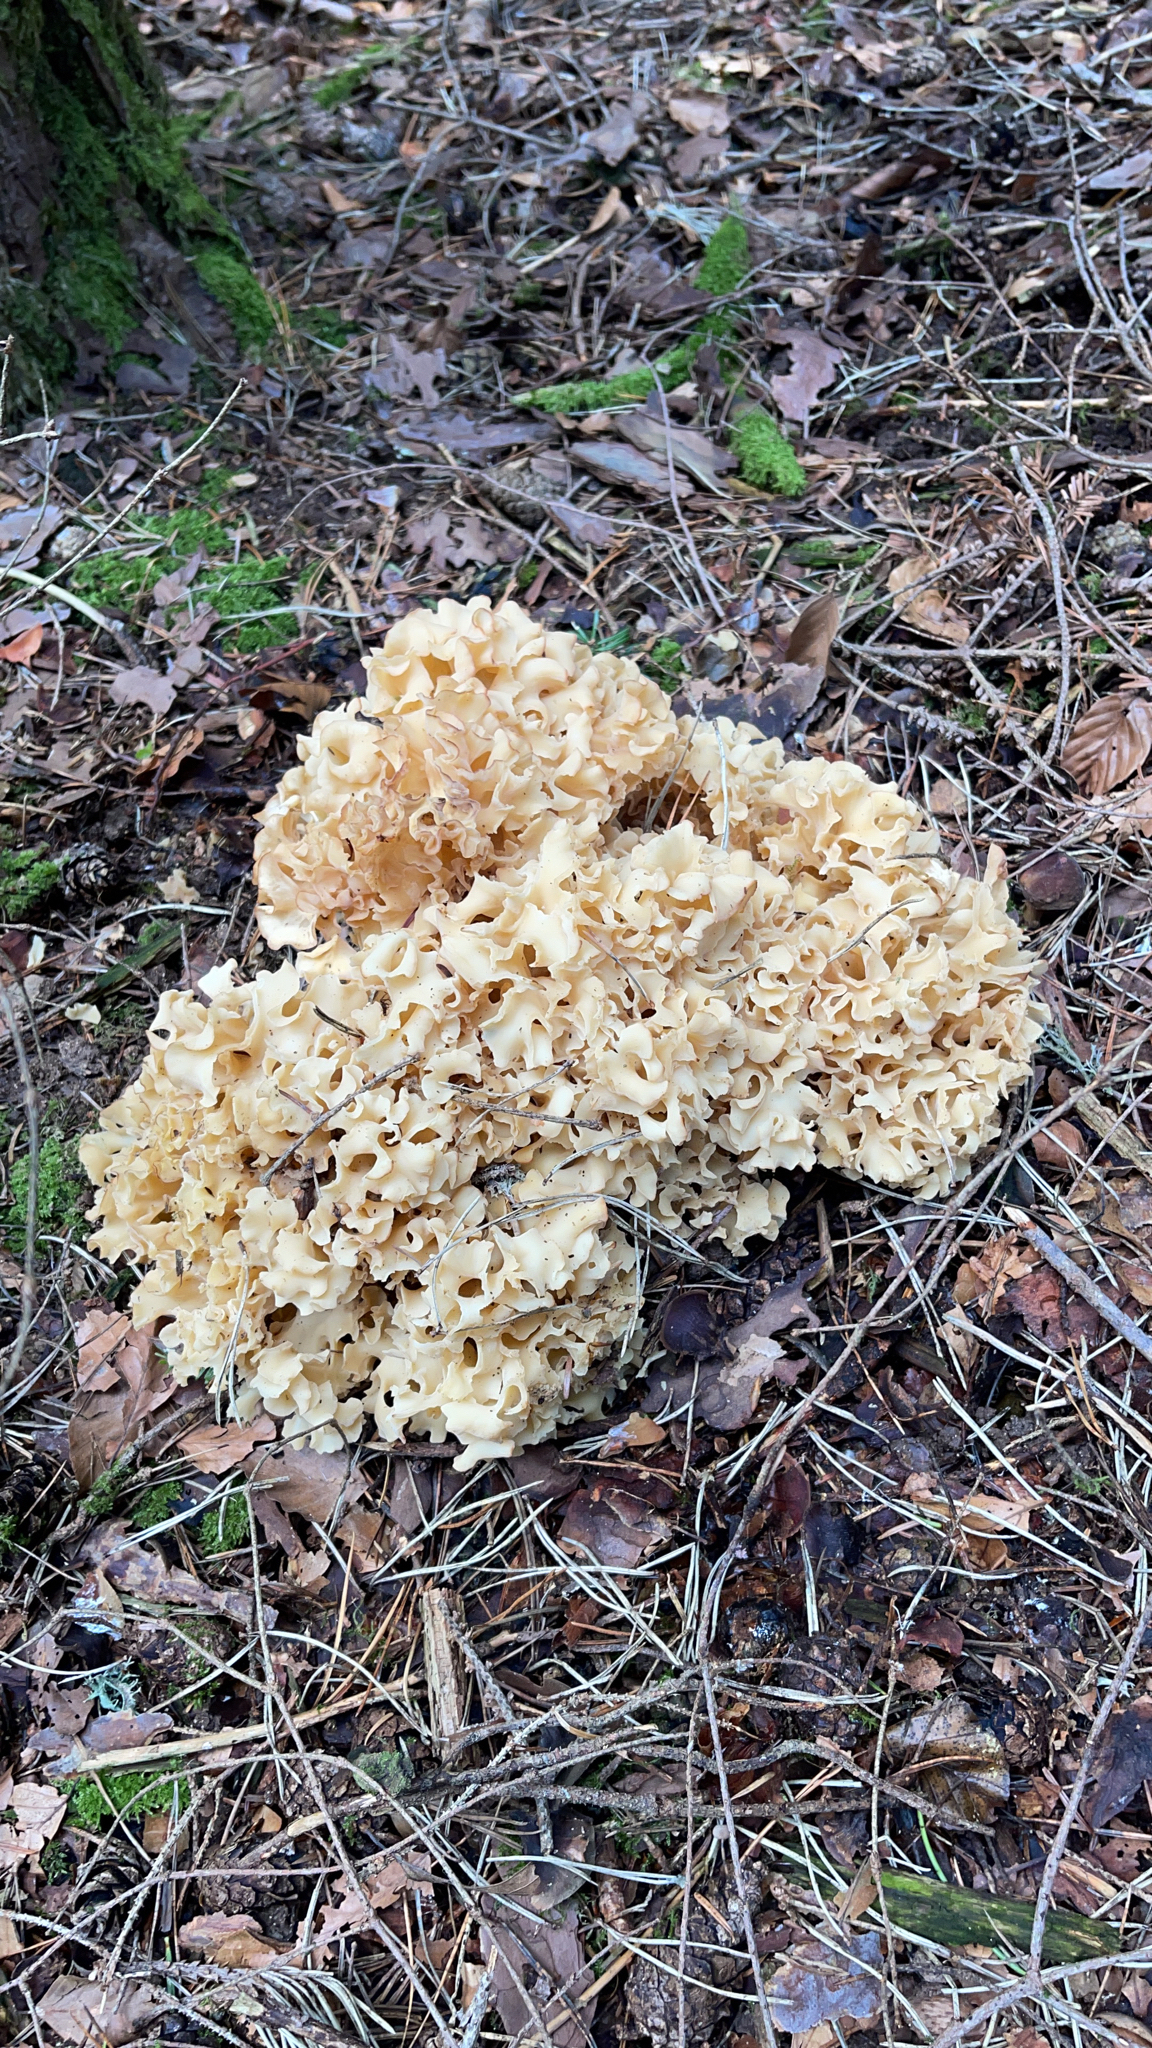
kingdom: Fungi
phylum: Basidiomycota
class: Agaricomycetes
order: Polyporales
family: Sparassidaceae
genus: Sparassis
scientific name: Sparassis crispa
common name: Brain fungus
